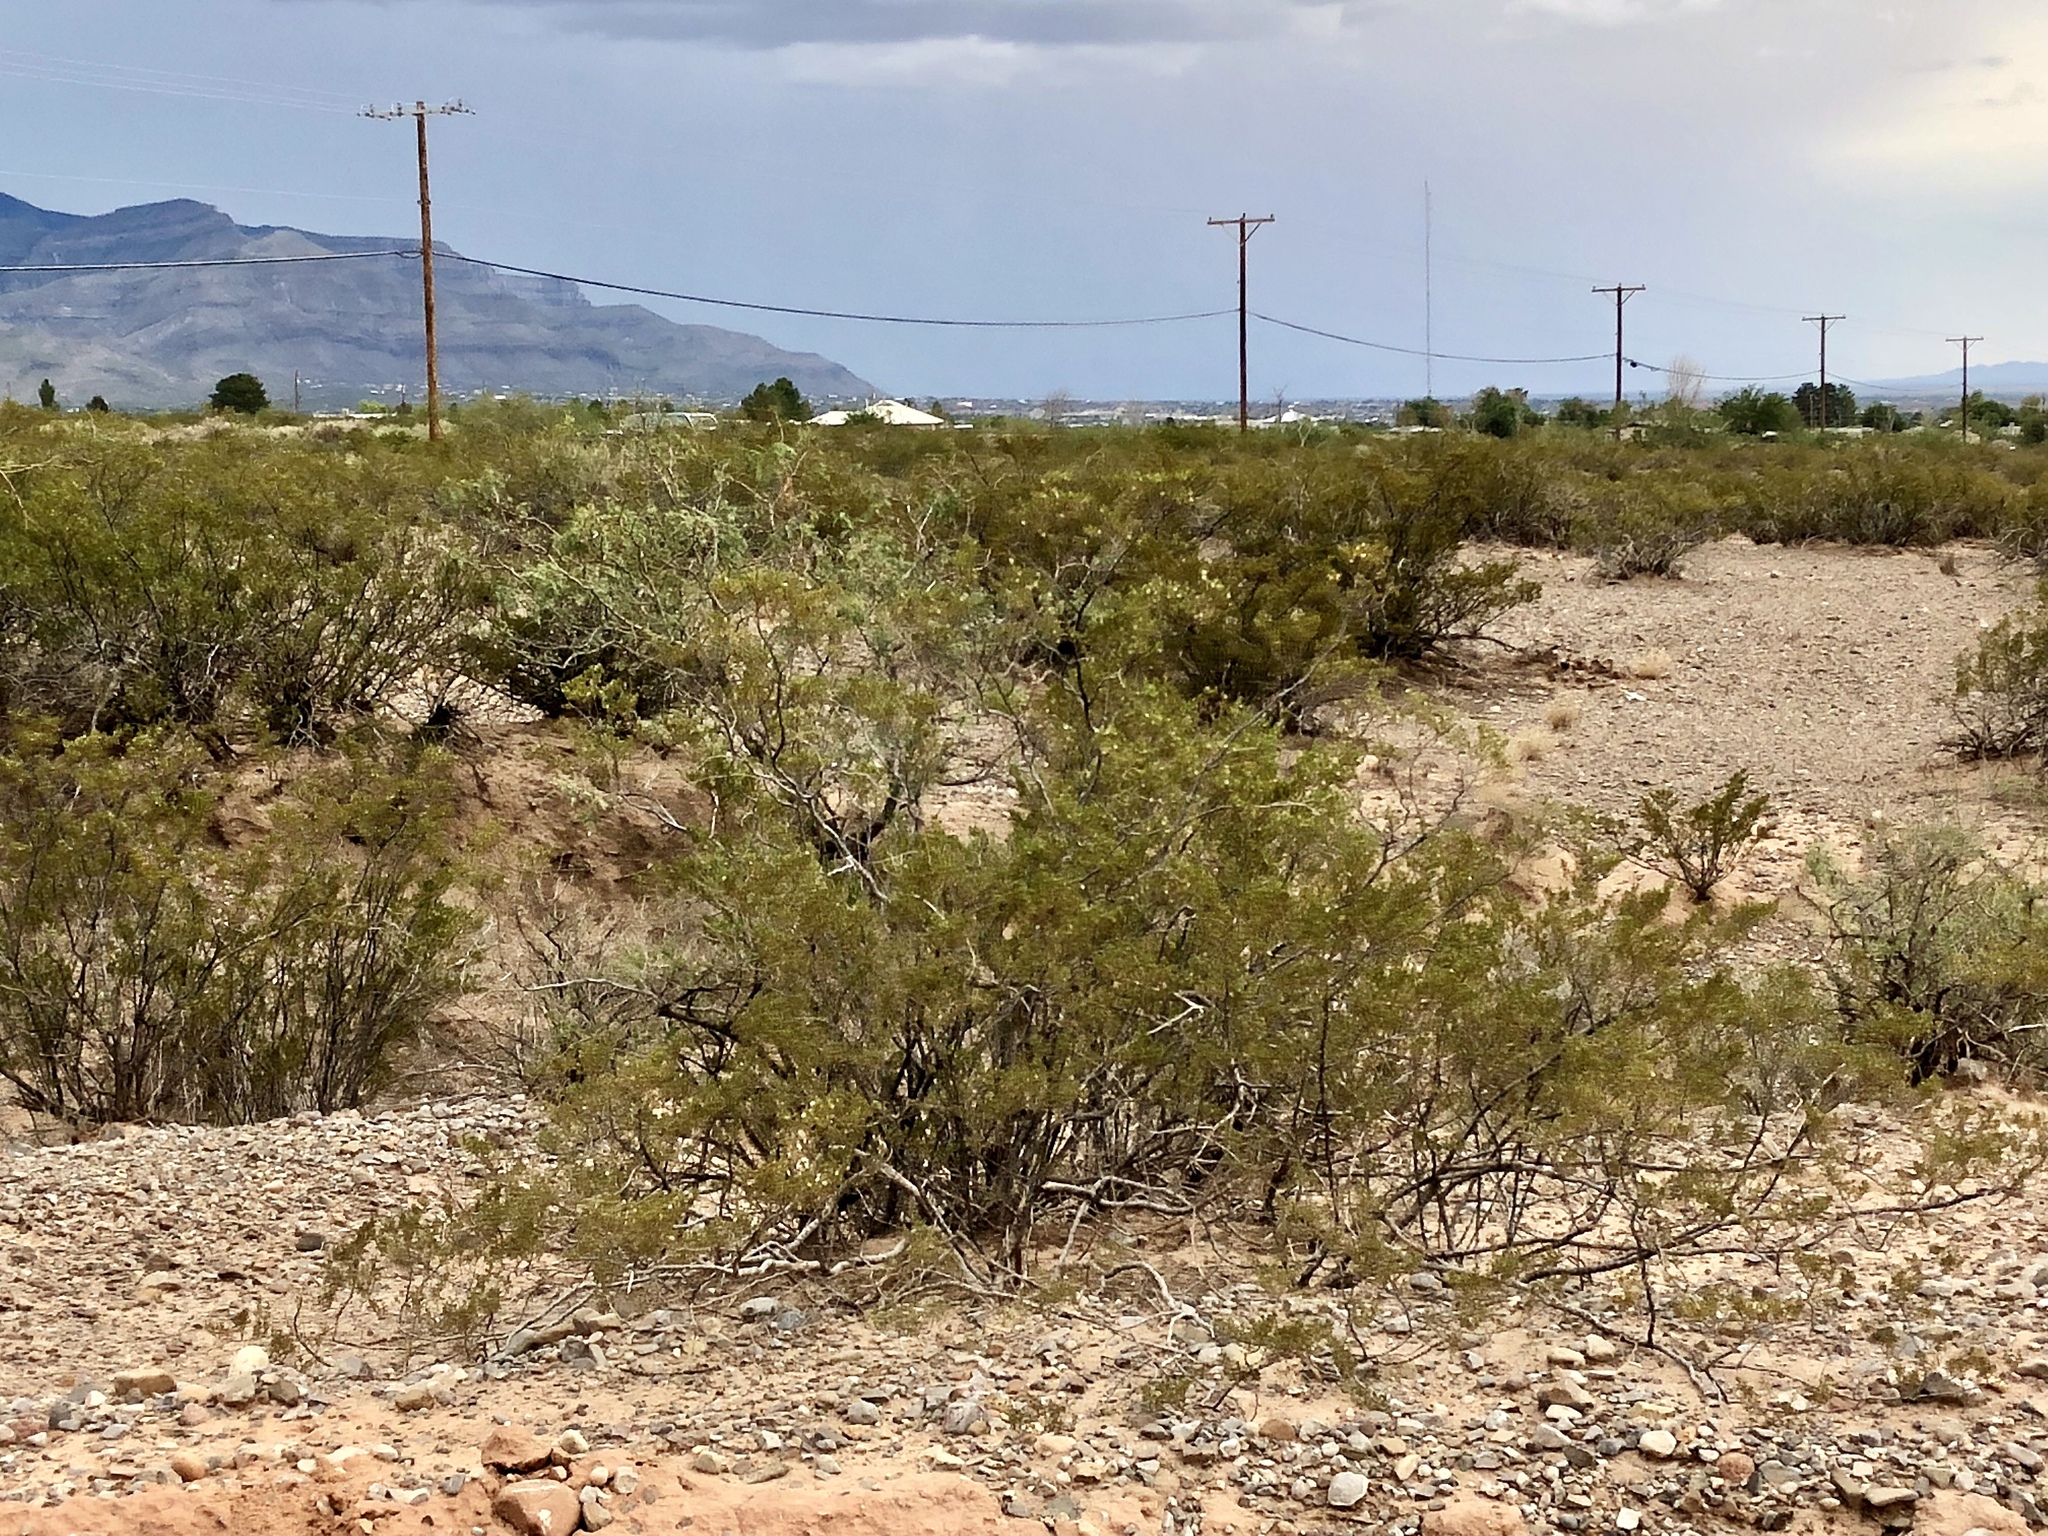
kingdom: Plantae
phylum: Tracheophyta
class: Magnoliopsida
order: Zygophyllales
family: Zygophyllaceae
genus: Larrea
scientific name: Larrea tridentata
